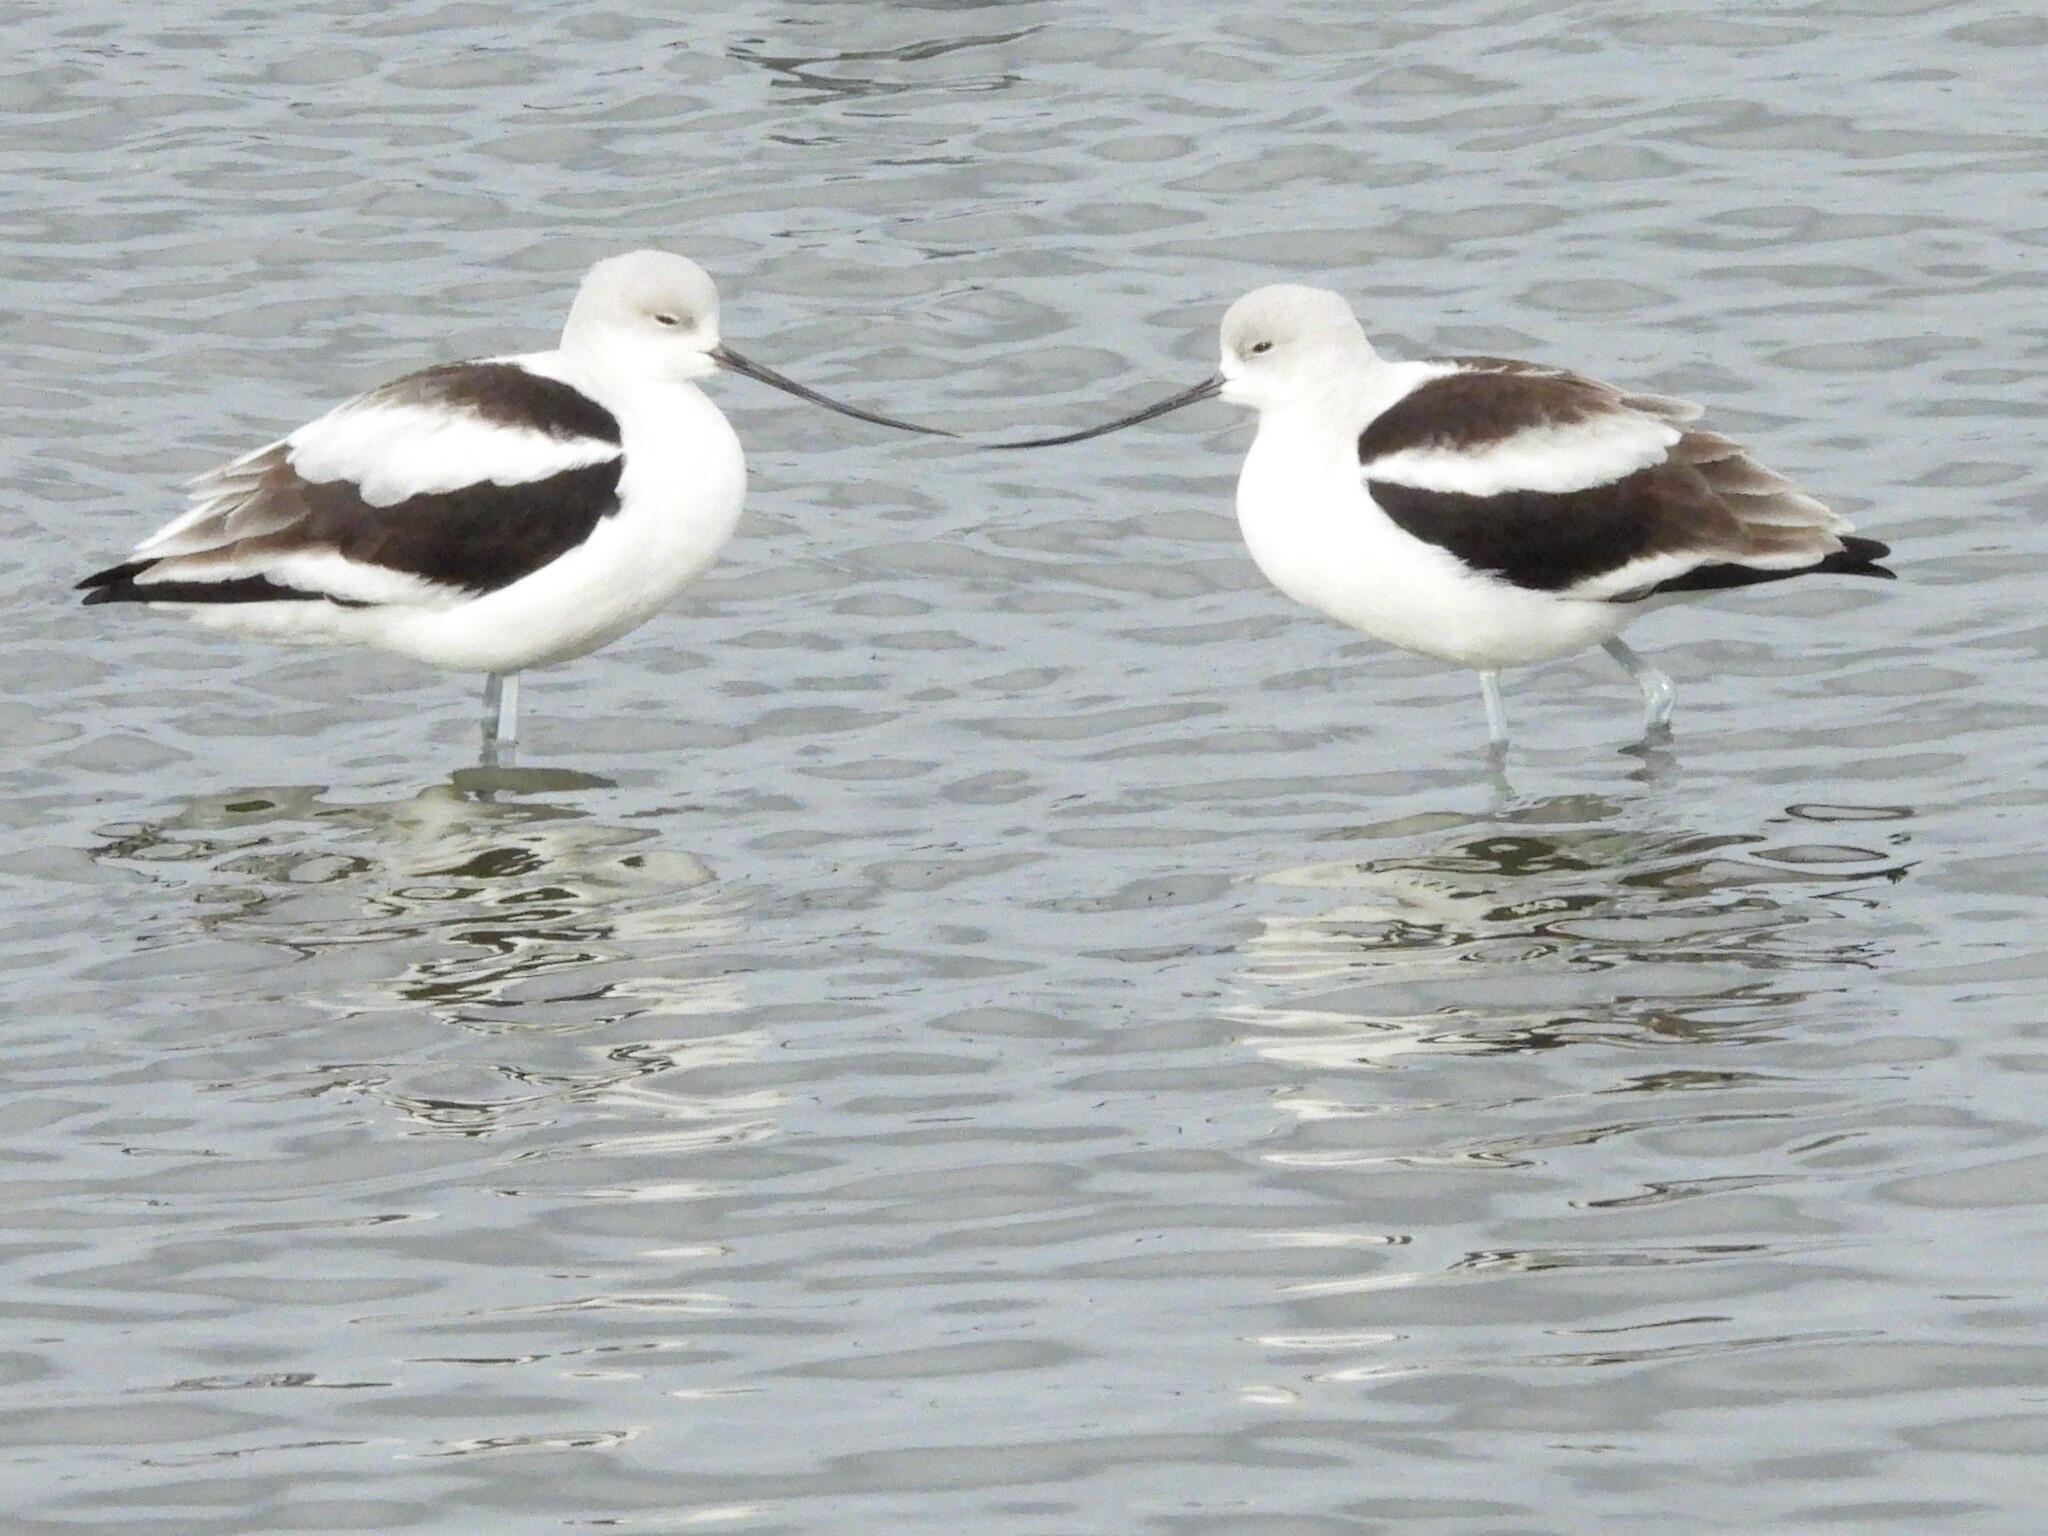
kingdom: Animalia
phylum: Chordata
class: Aves
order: Charadriiformes
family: Recurvirostridae
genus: Recurvirostra
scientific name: Recurvirostra americana
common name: American avocet
